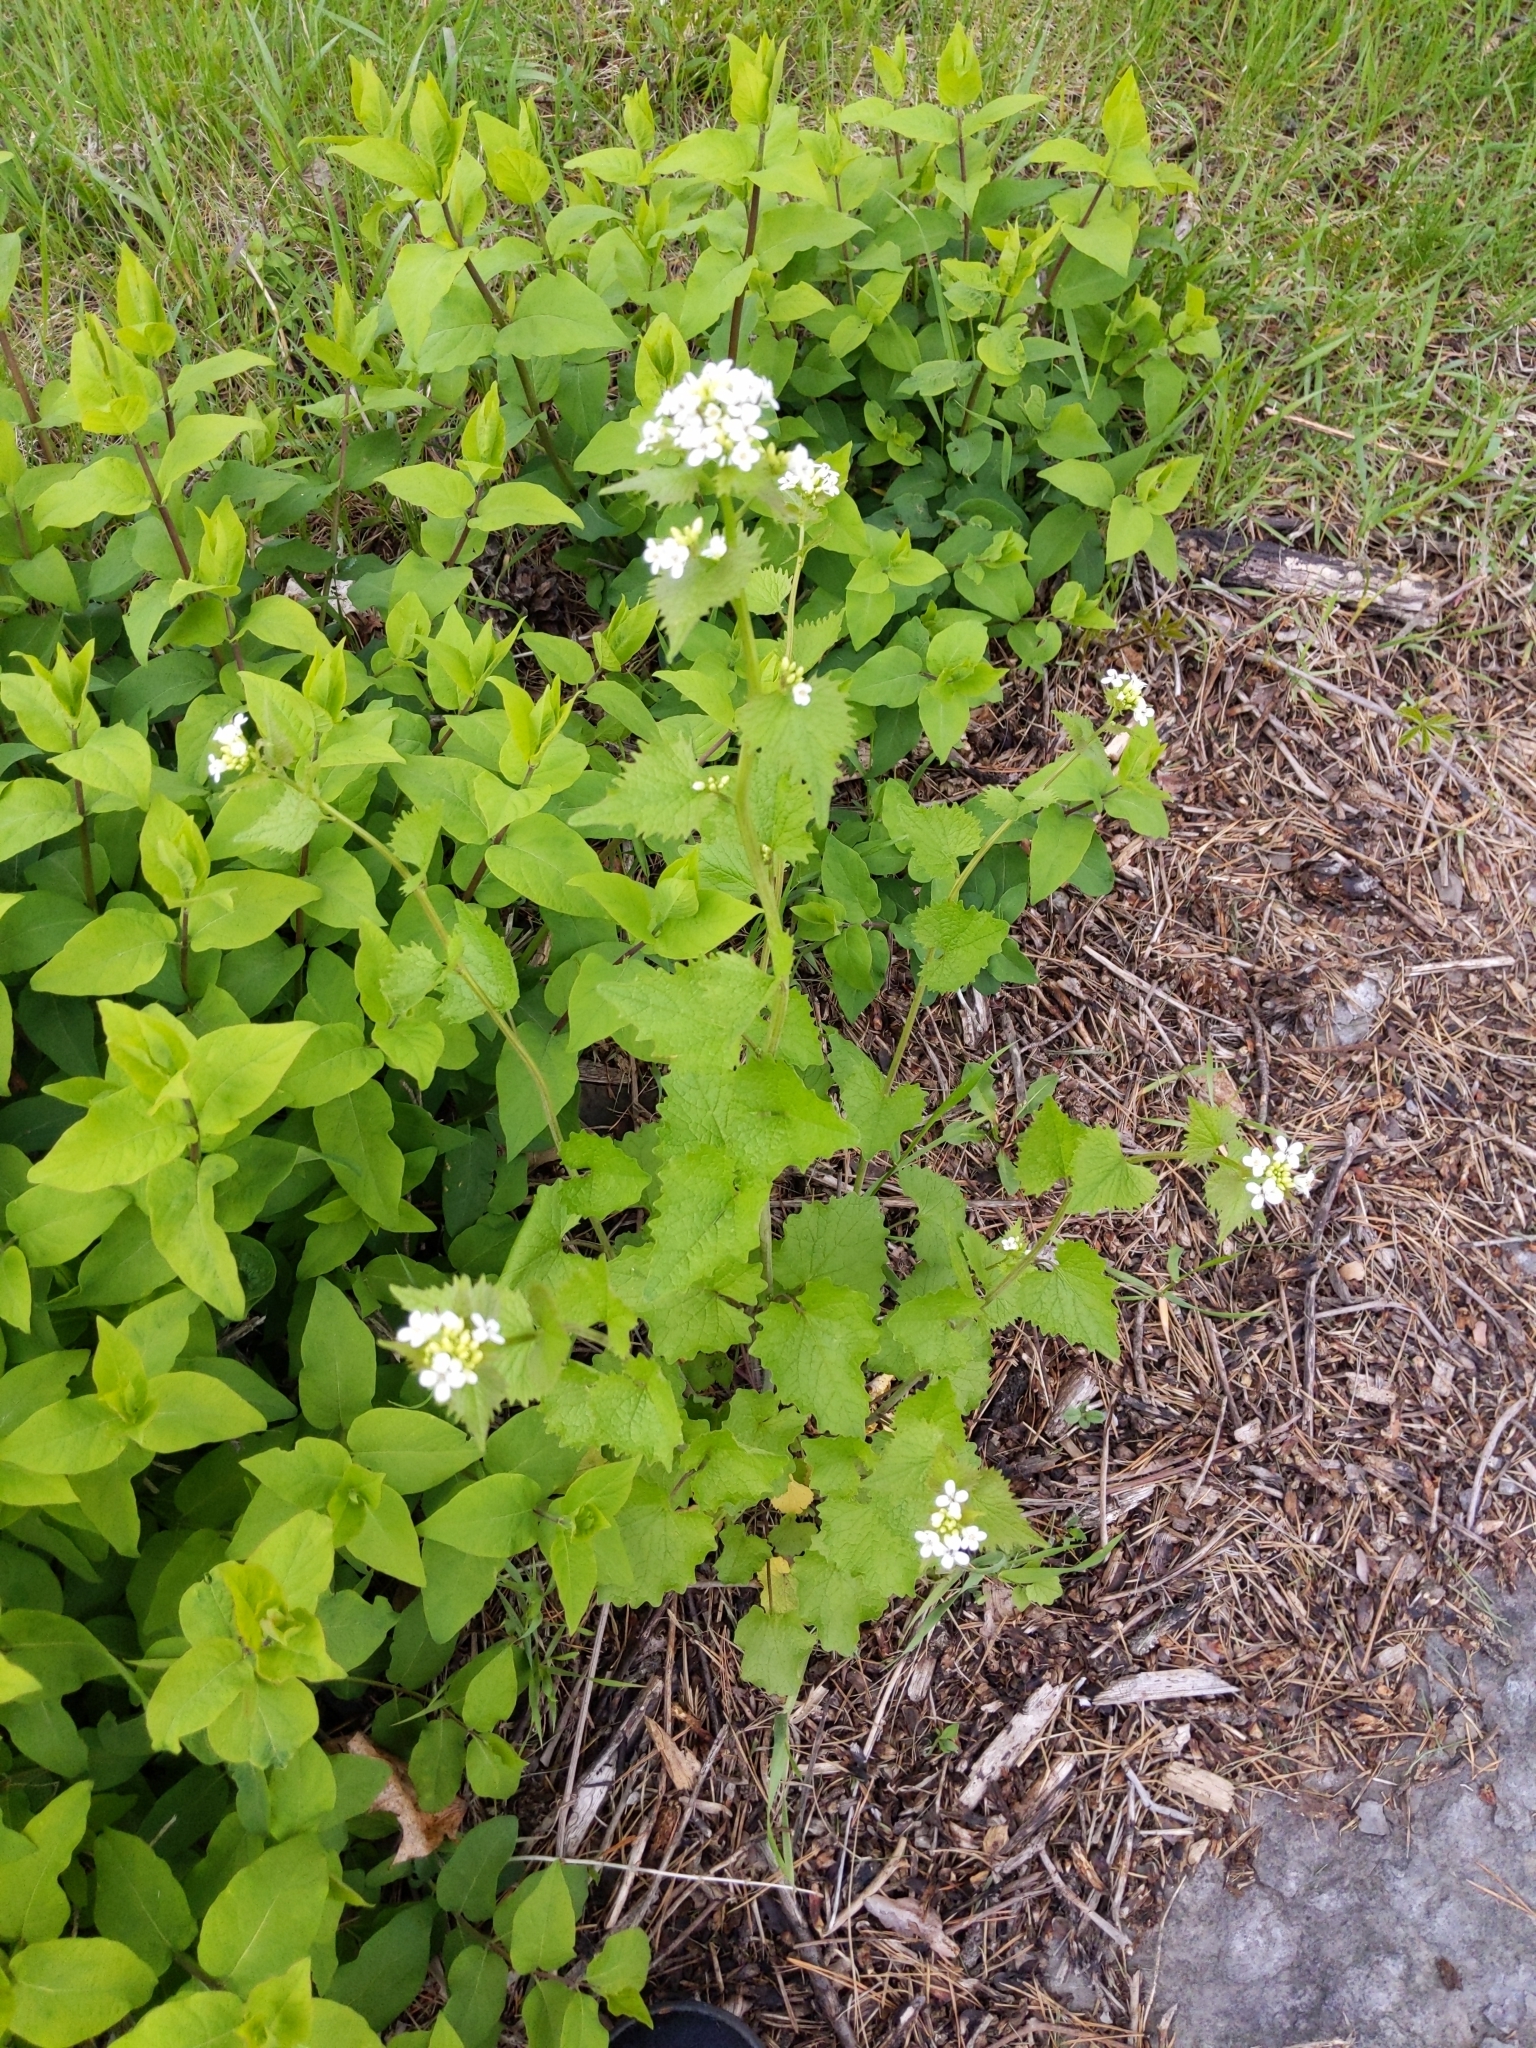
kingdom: Plantae
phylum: Tracheophyta
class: Magnoliopsida
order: Brassicales
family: Brassicaceae
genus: Alliaria
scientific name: Alliaria petiolata
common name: Garlic mustard
